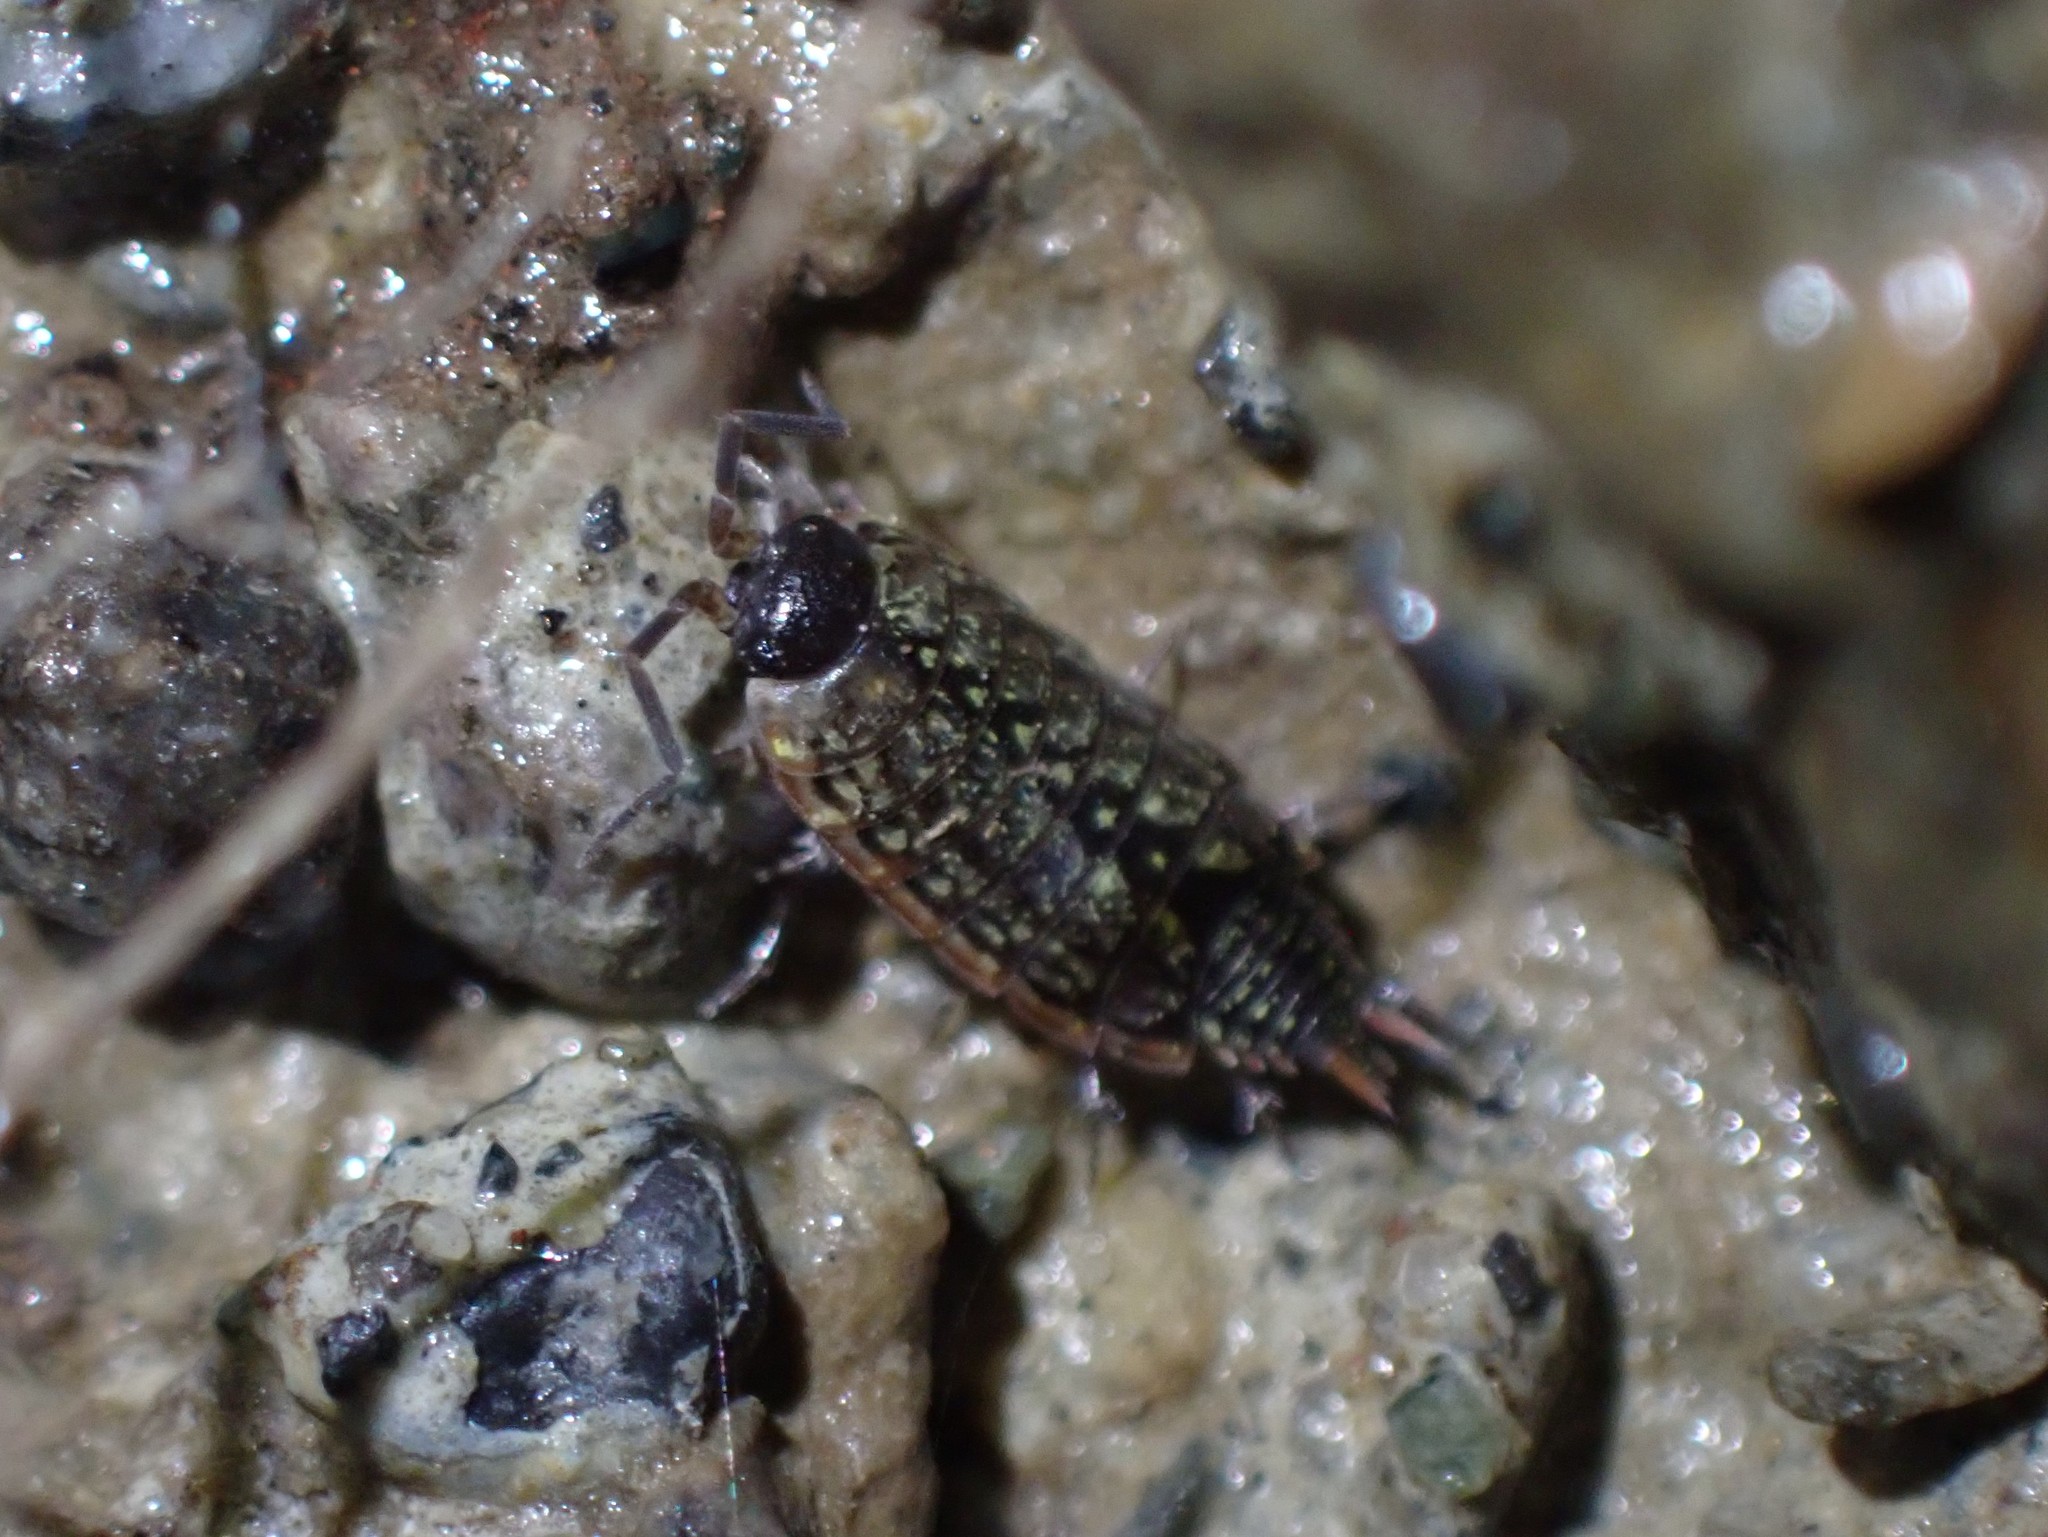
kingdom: Animalia
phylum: Arthropoda
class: Malacostraca
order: Isopoda
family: Philosciidae
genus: Philoscia
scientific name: Philoscia muscorum
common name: Common striped woodlouse
